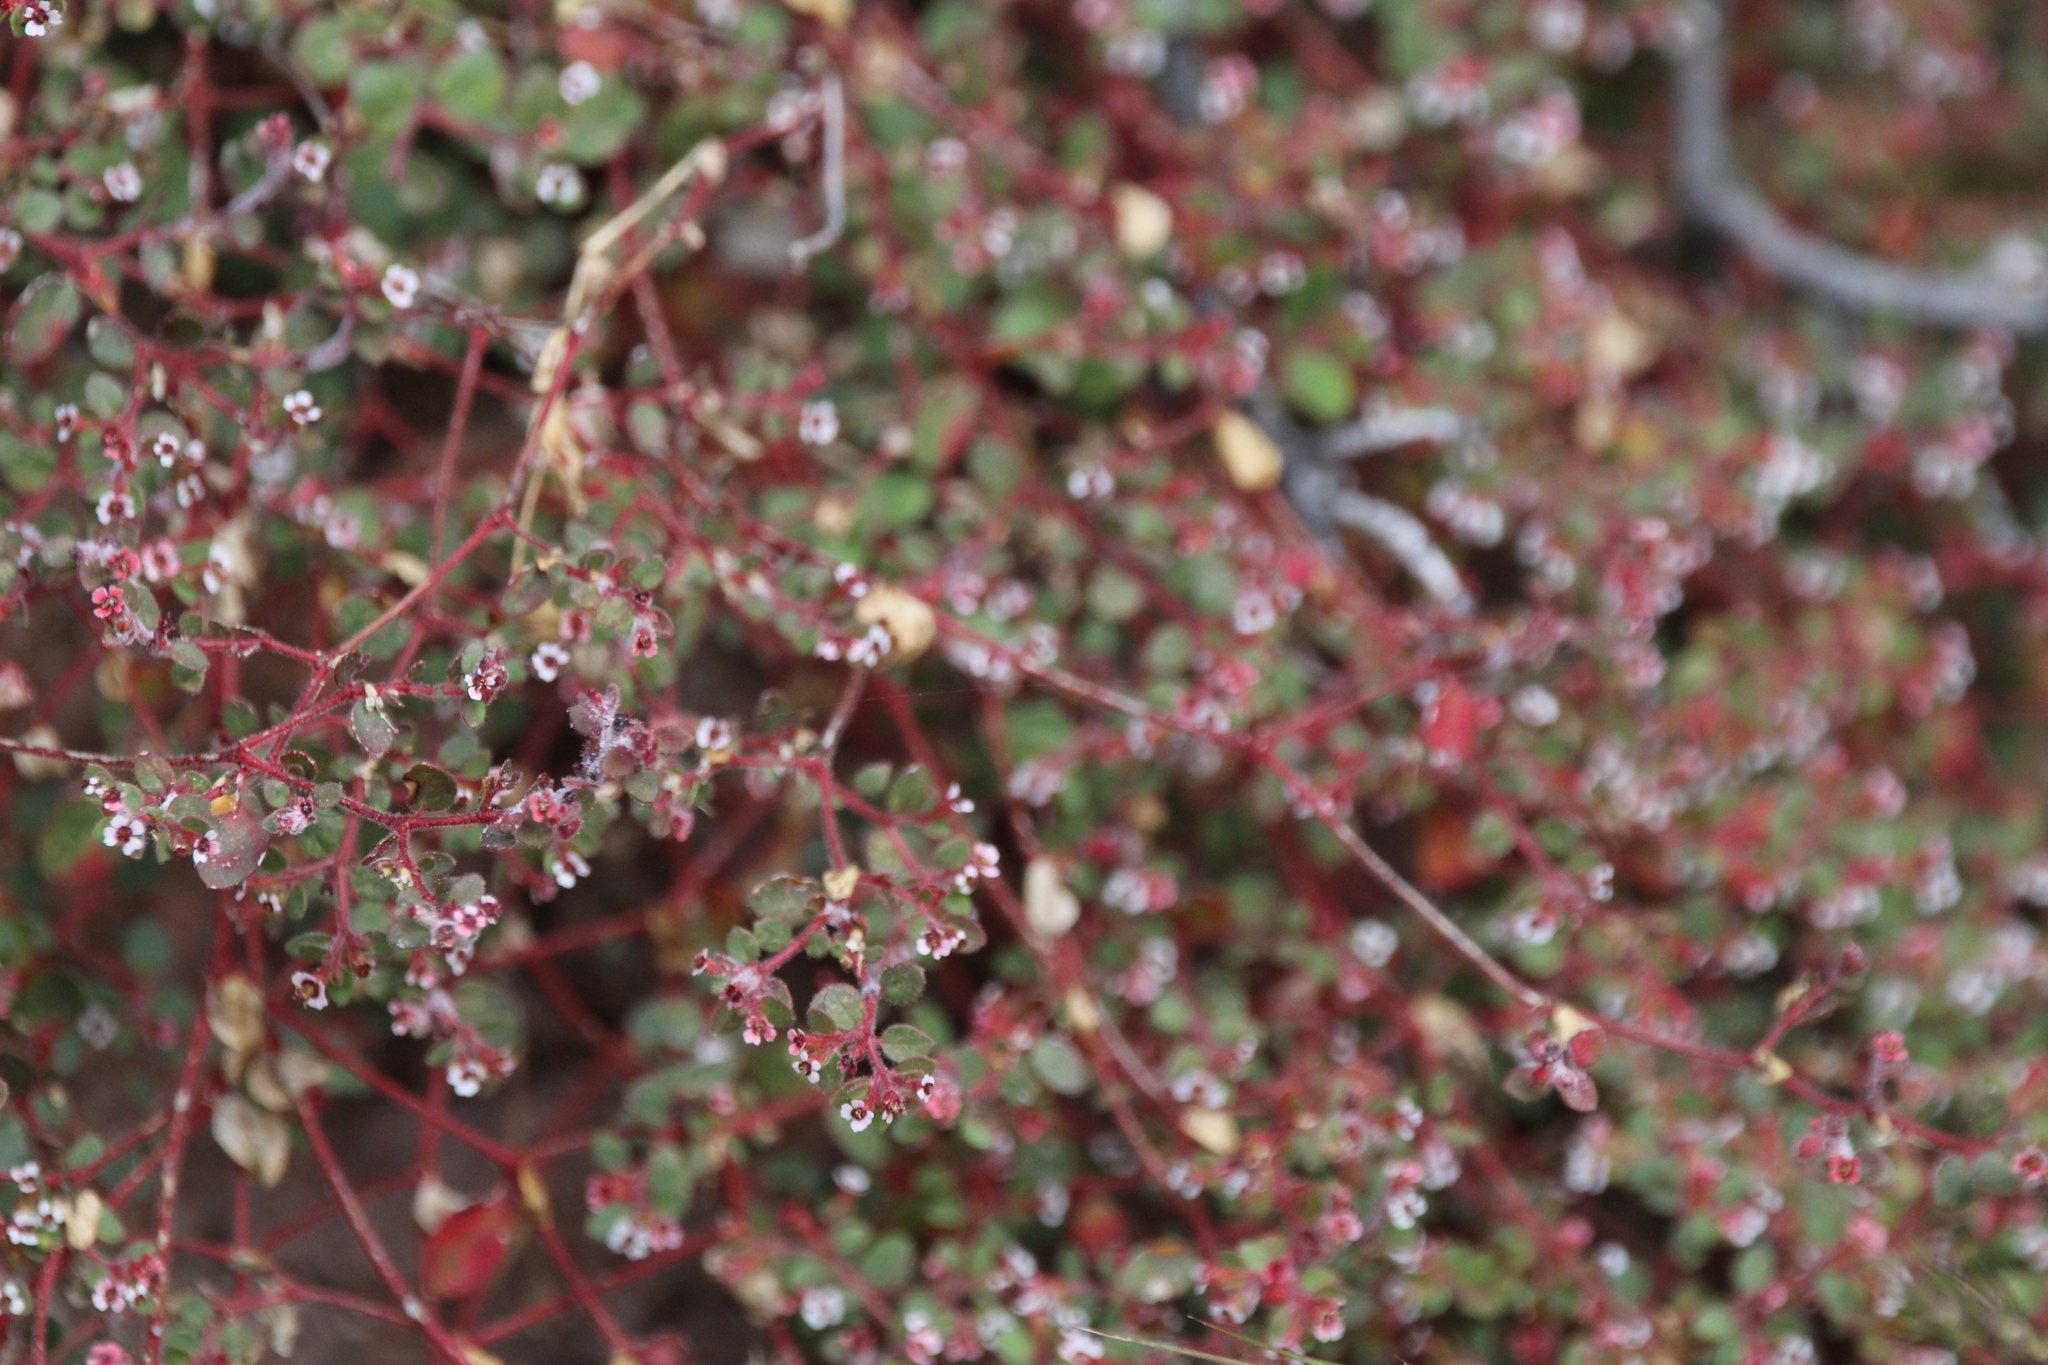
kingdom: Plantae
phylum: Tracheophyta
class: Magnoliopsida
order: Malpighiales
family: Euphorbiaceae
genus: Euphorbia
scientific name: Euphorbia arizonica
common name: Arizona spurge
